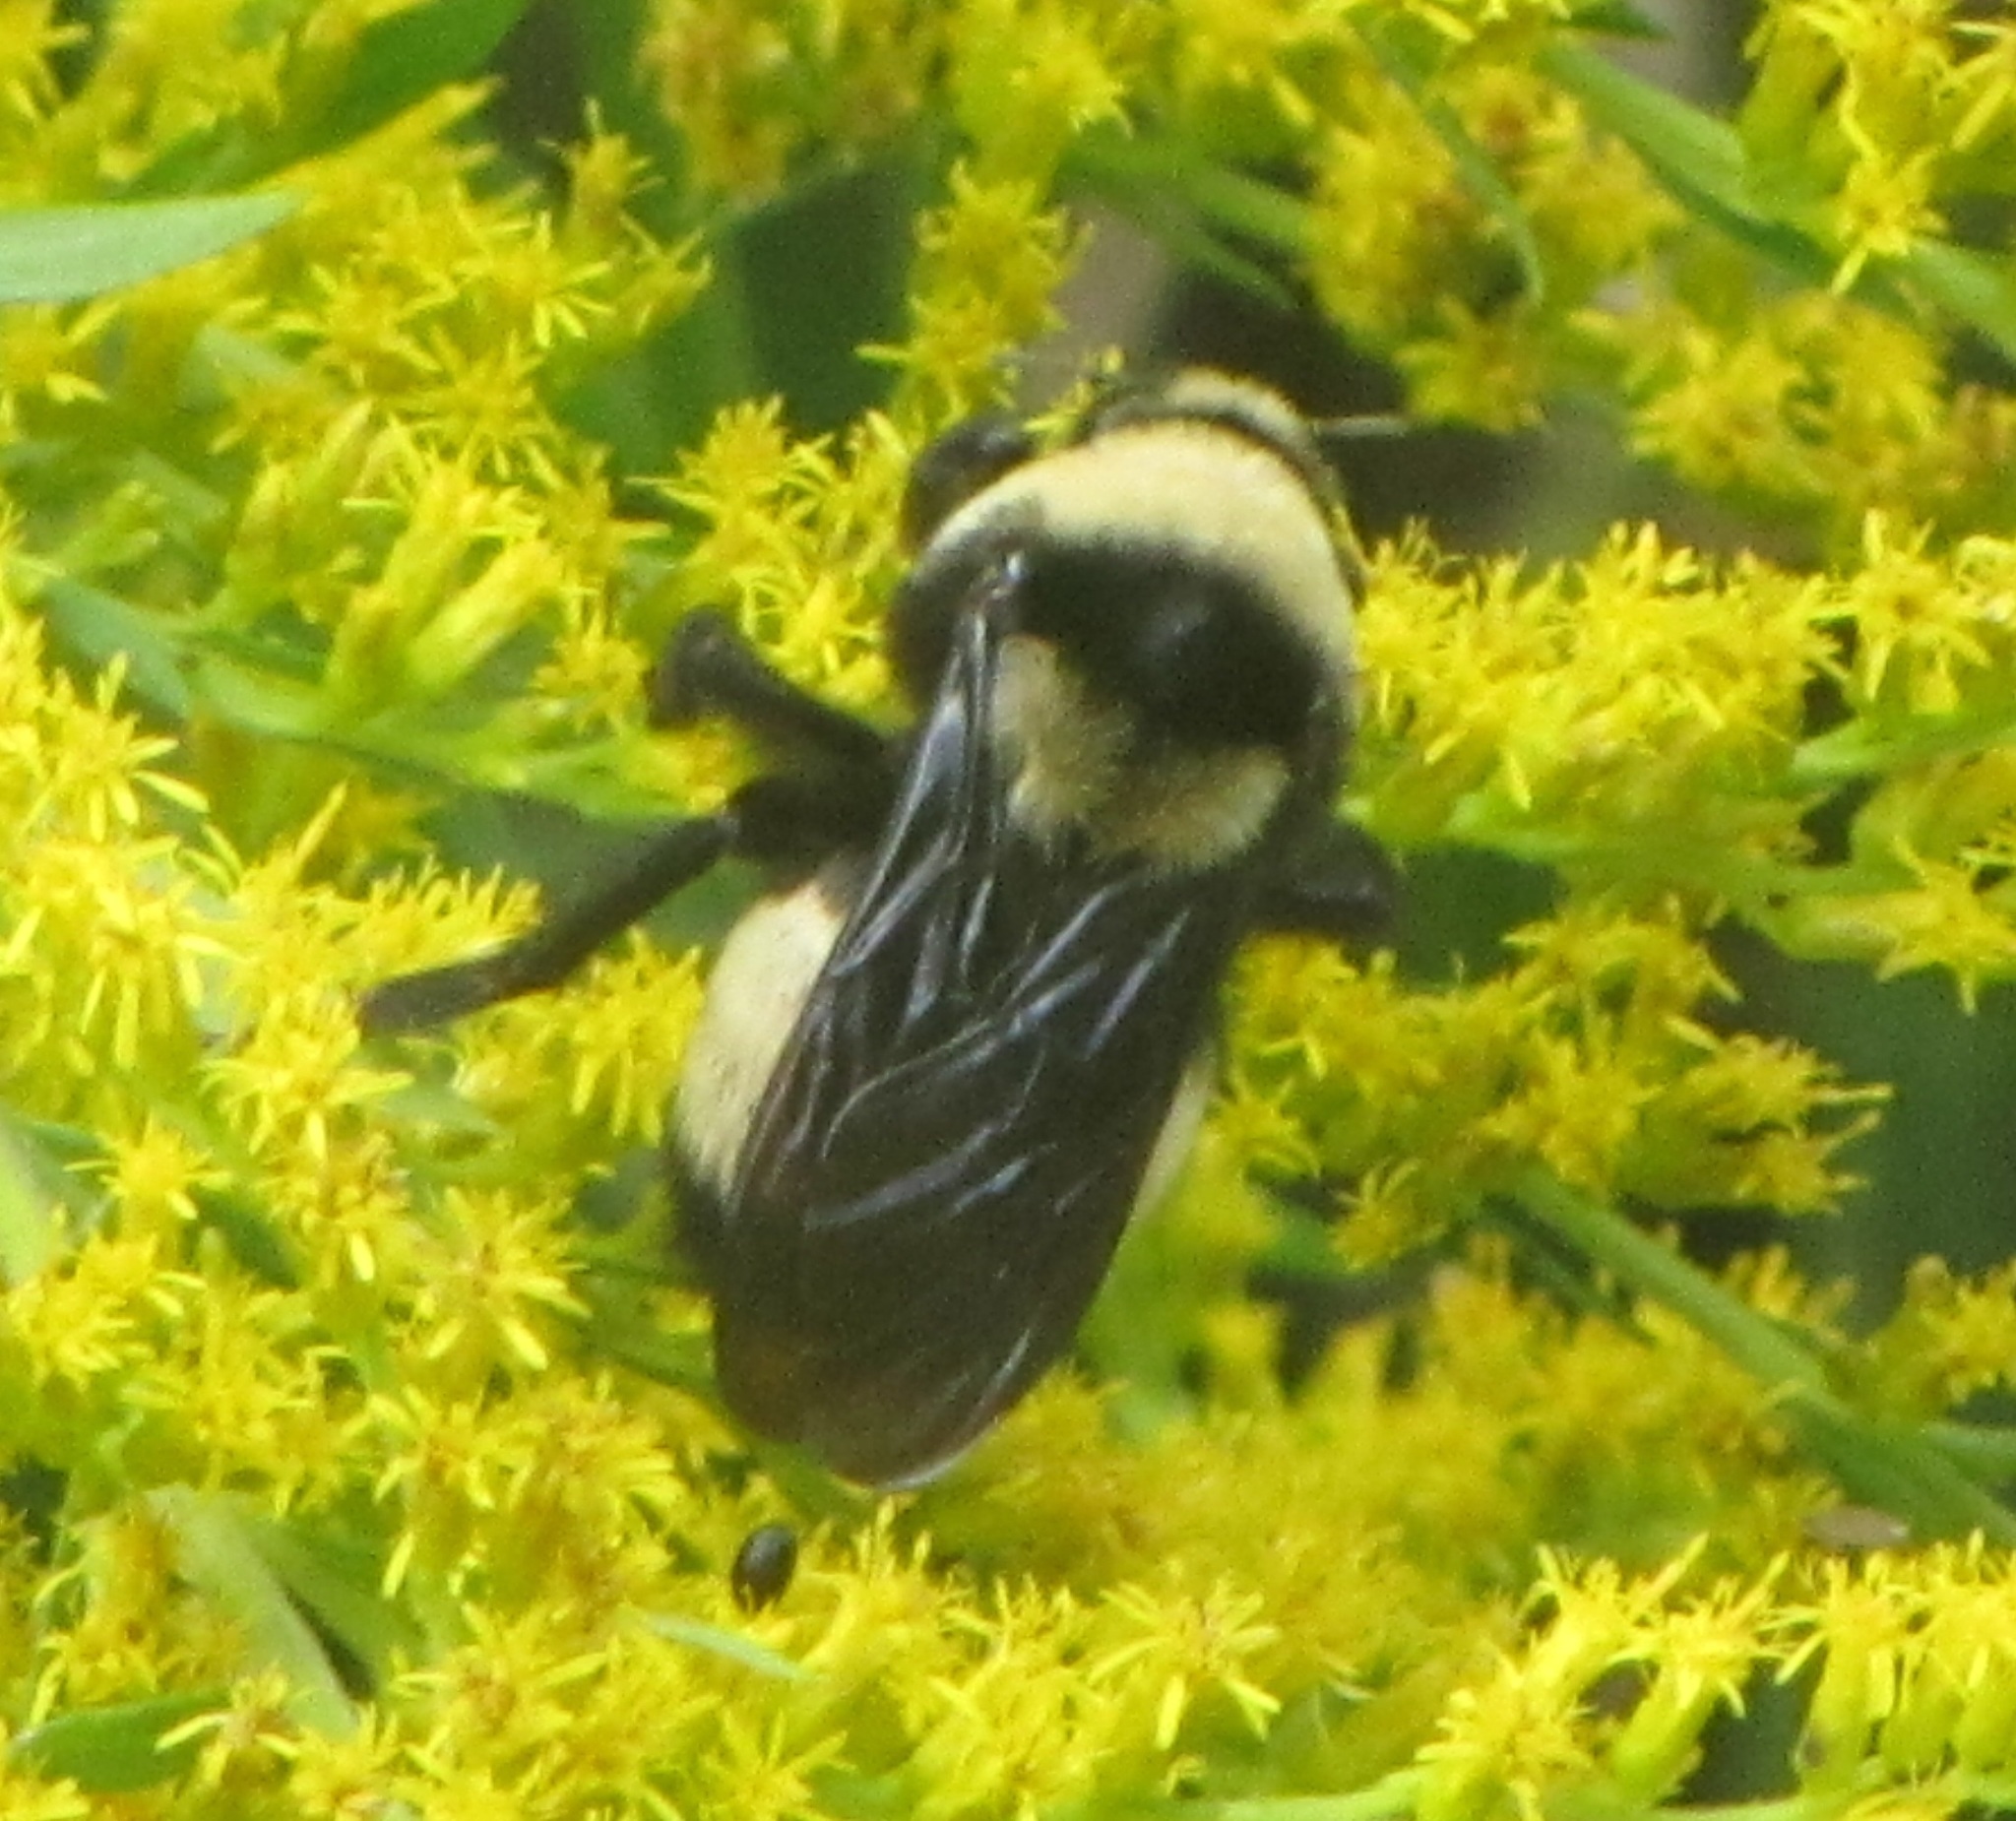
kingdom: Animalia
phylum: Arthropoda
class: Insecta
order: Hymenoptera
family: Apidae
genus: Bombus
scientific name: Bombus auricomus
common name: Black and gold bumble bee
